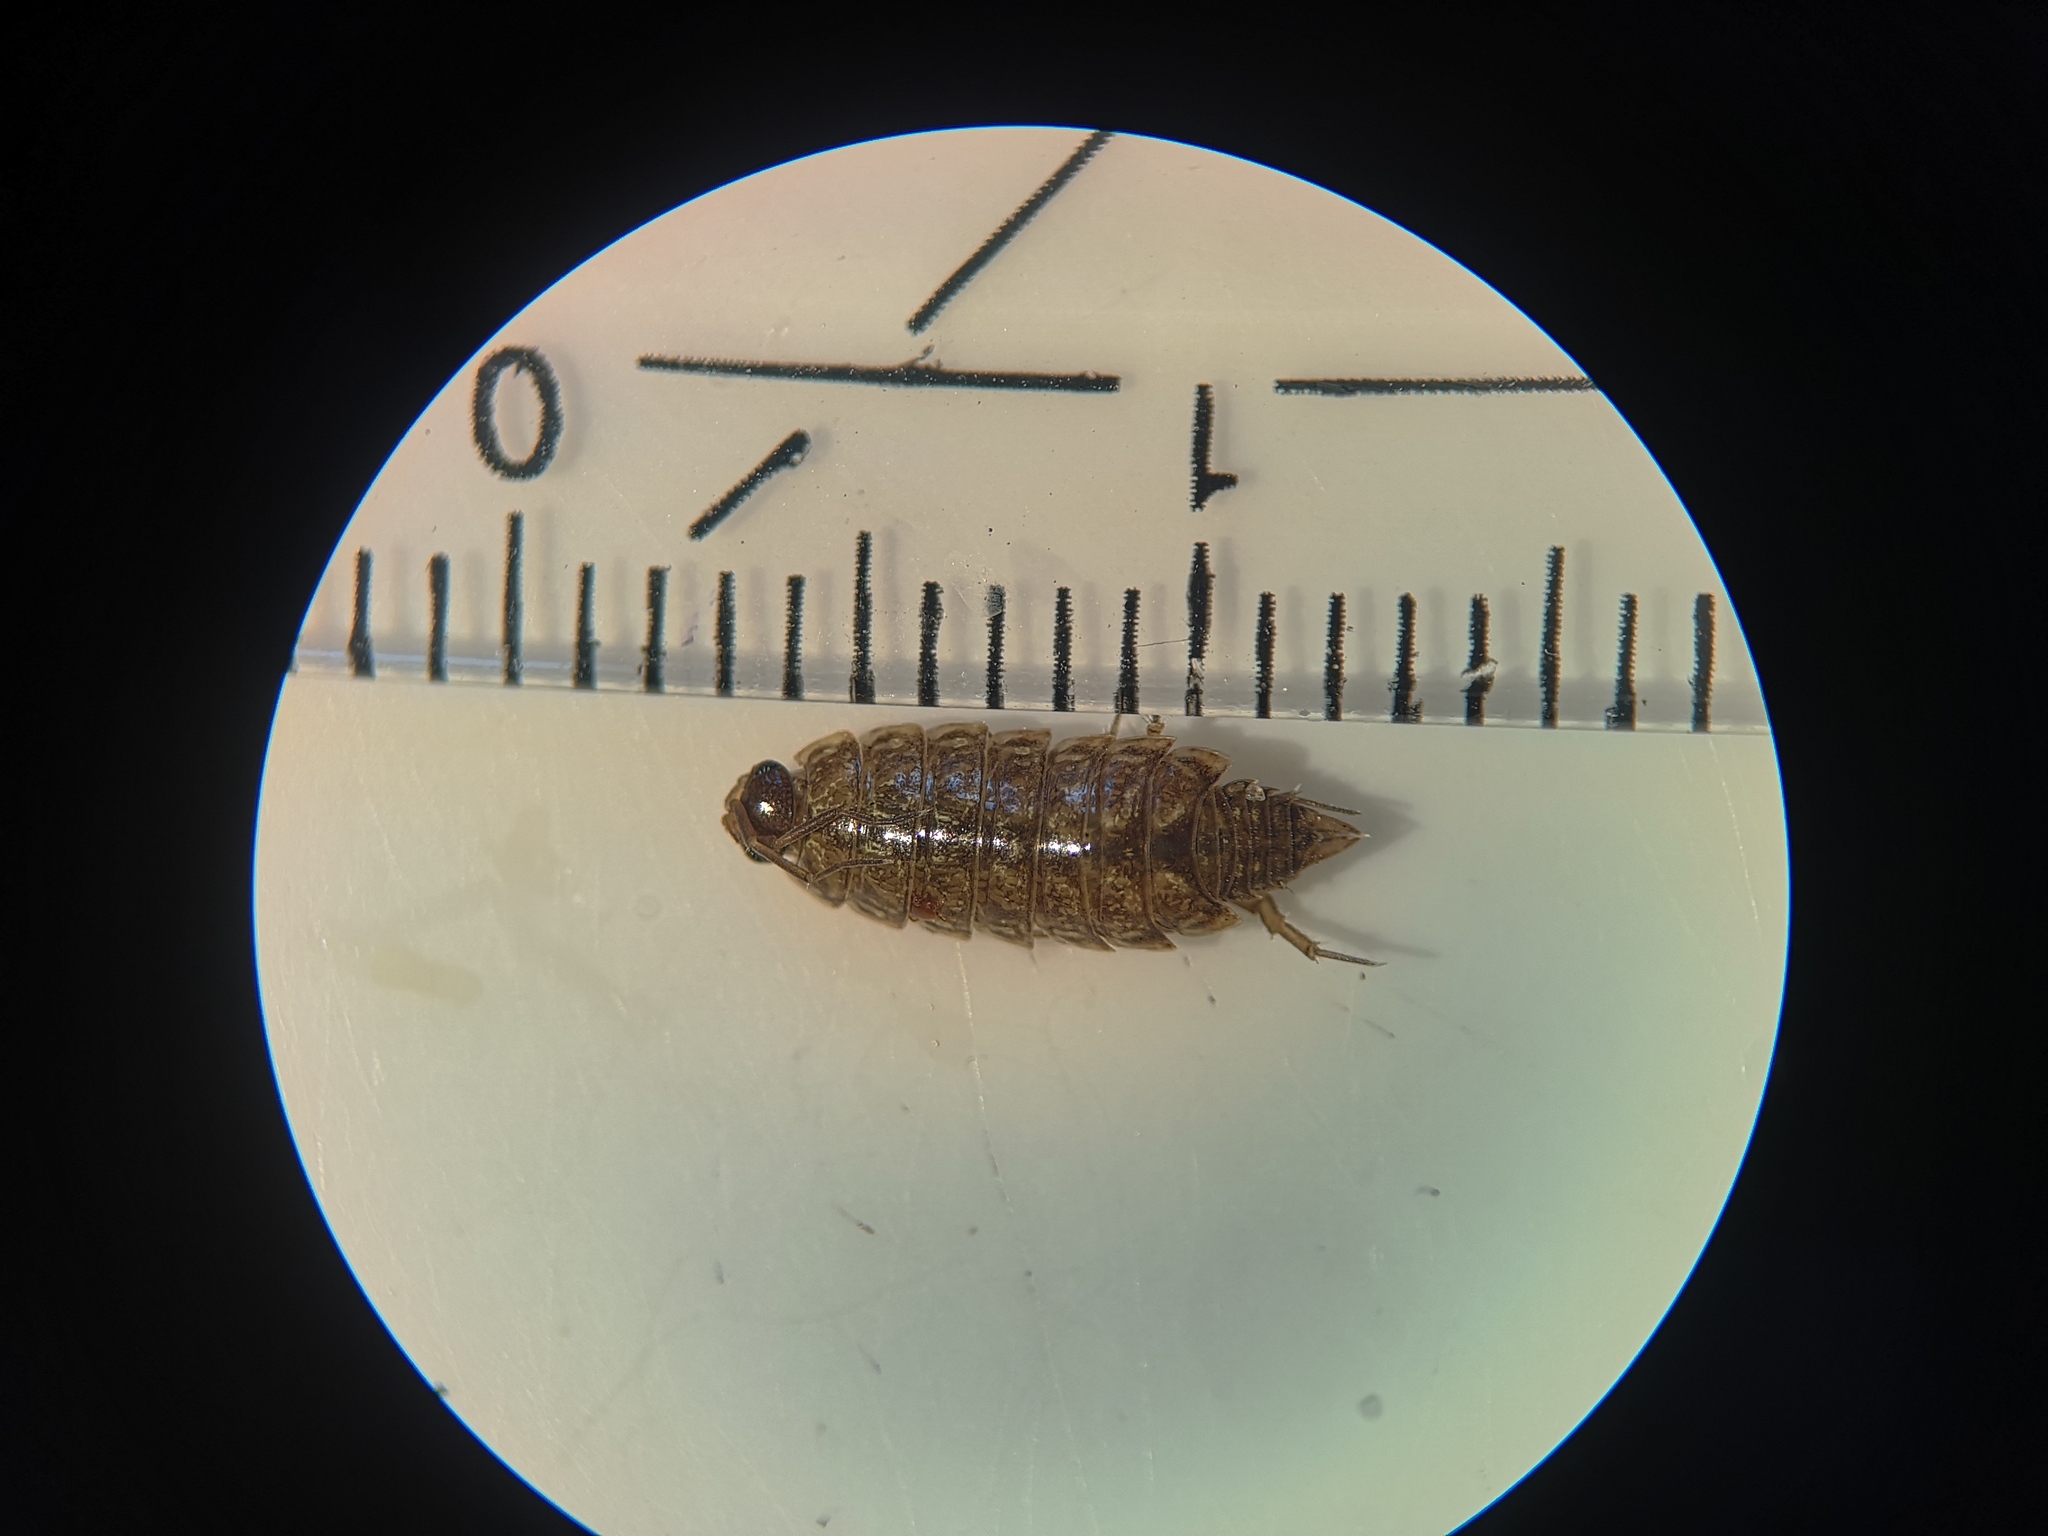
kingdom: Animalia
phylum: Arthropoda
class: Malacostraca
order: Isopoda
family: Philosciidae
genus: Philoscia
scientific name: Philoscia muscorum
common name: Common striped woodlouse
